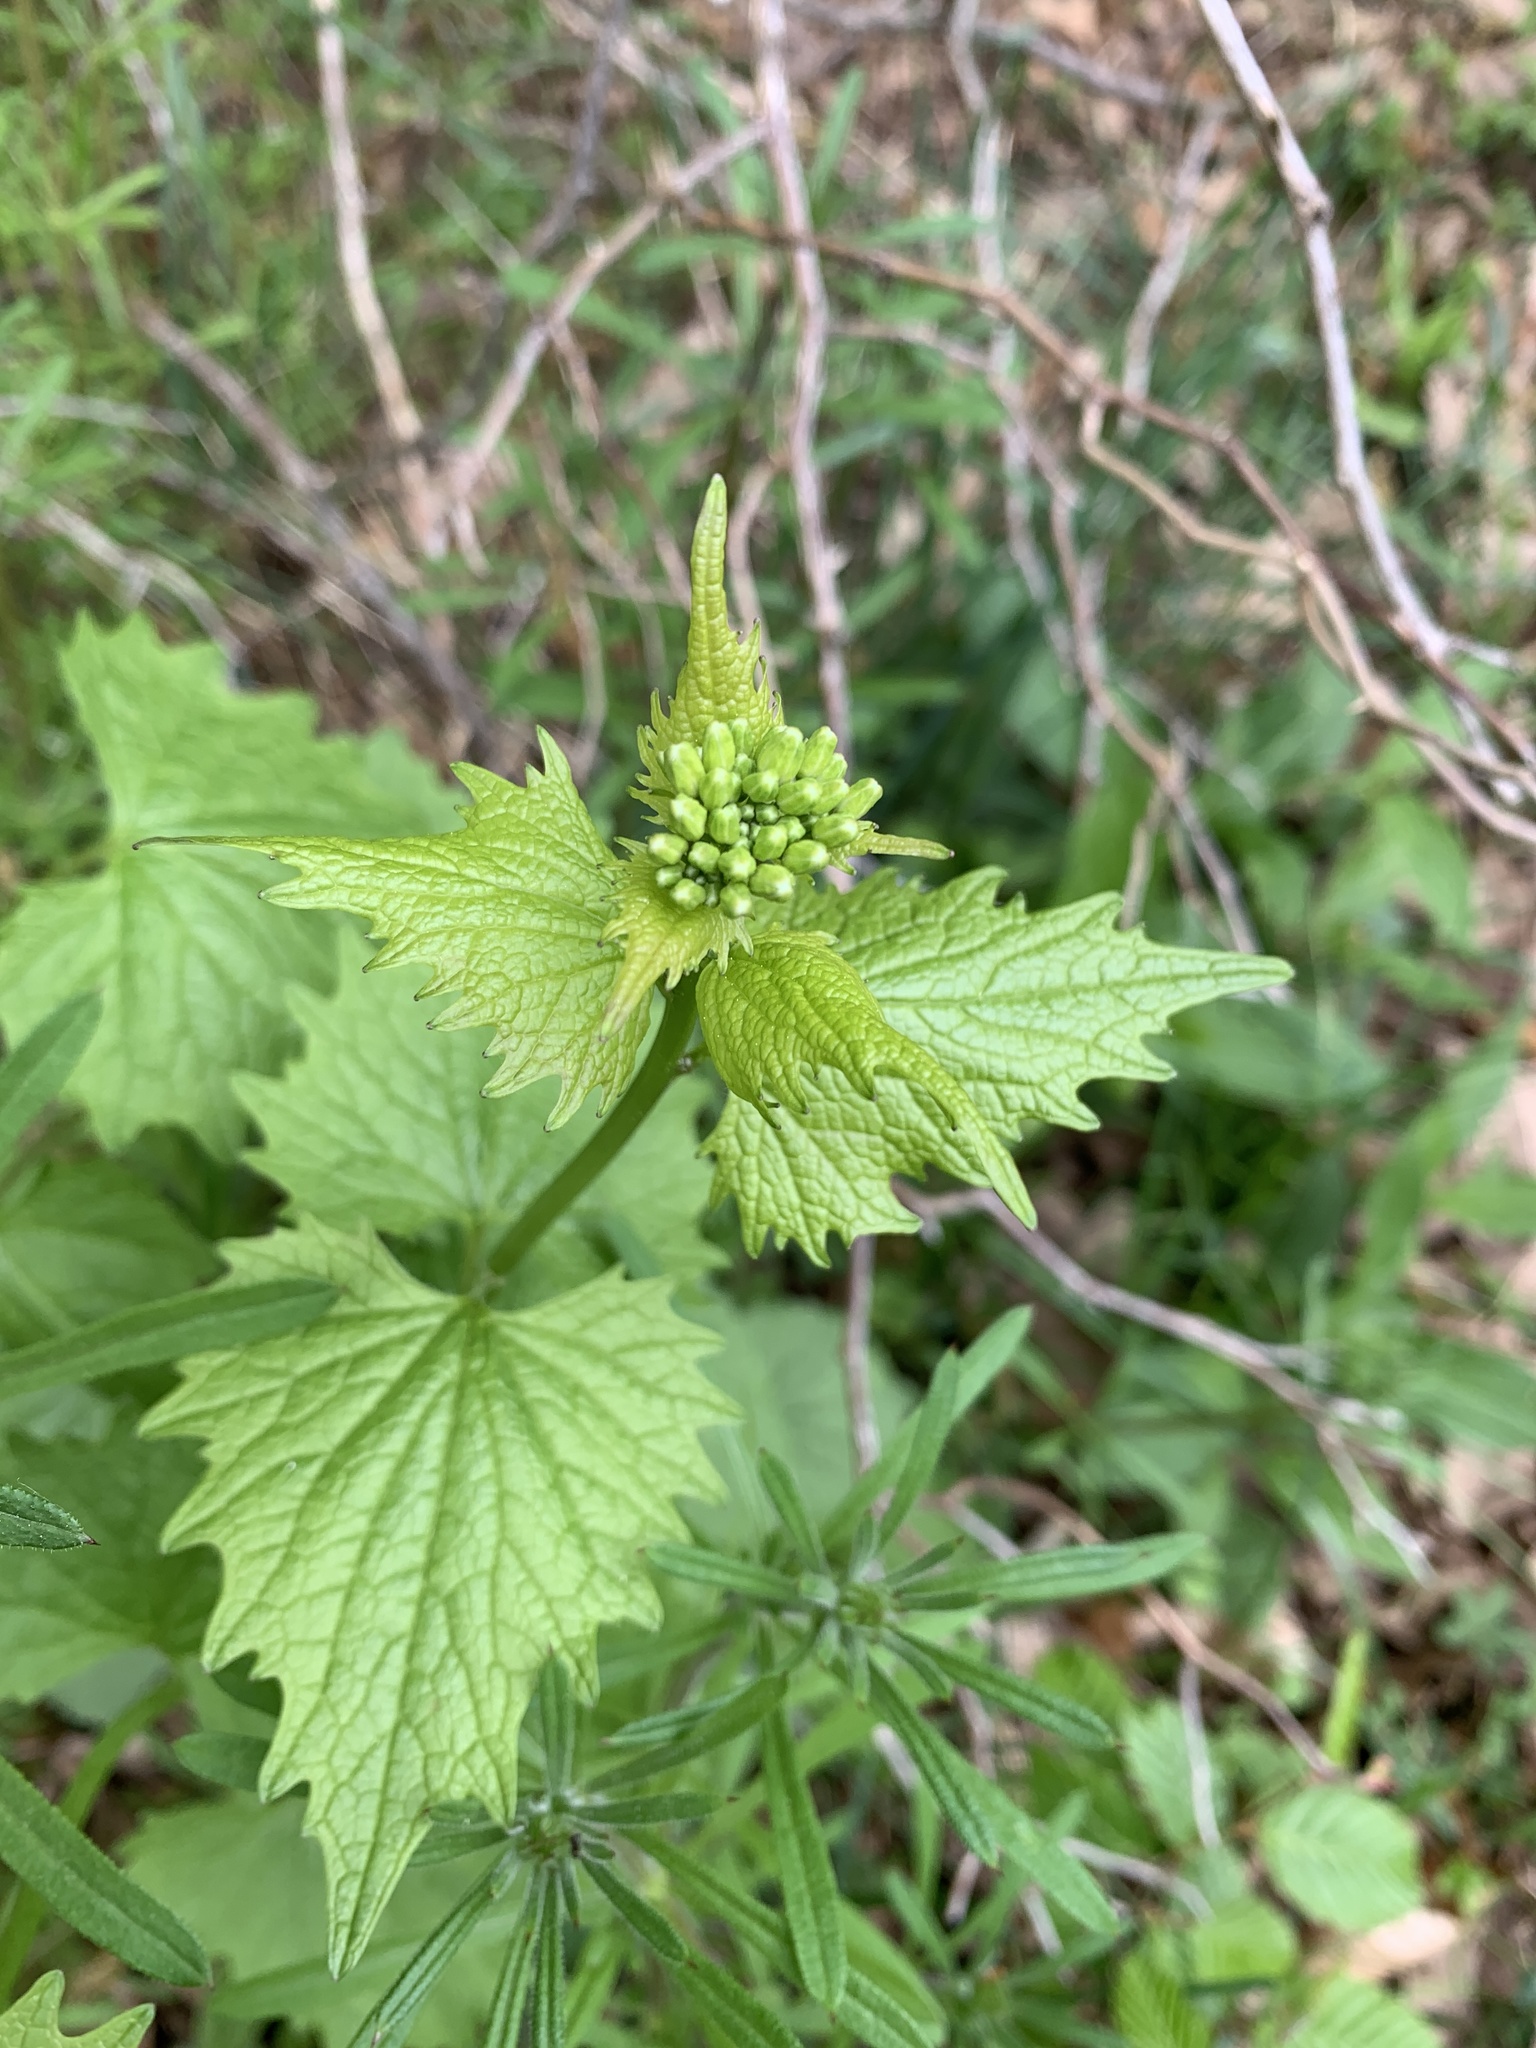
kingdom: Plantae
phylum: Tracheophyta
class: Magnoliopsida
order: Brassicales
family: Brassicaceae
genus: Alliaria
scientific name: Alliaria petiolata
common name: Garlic mustard
